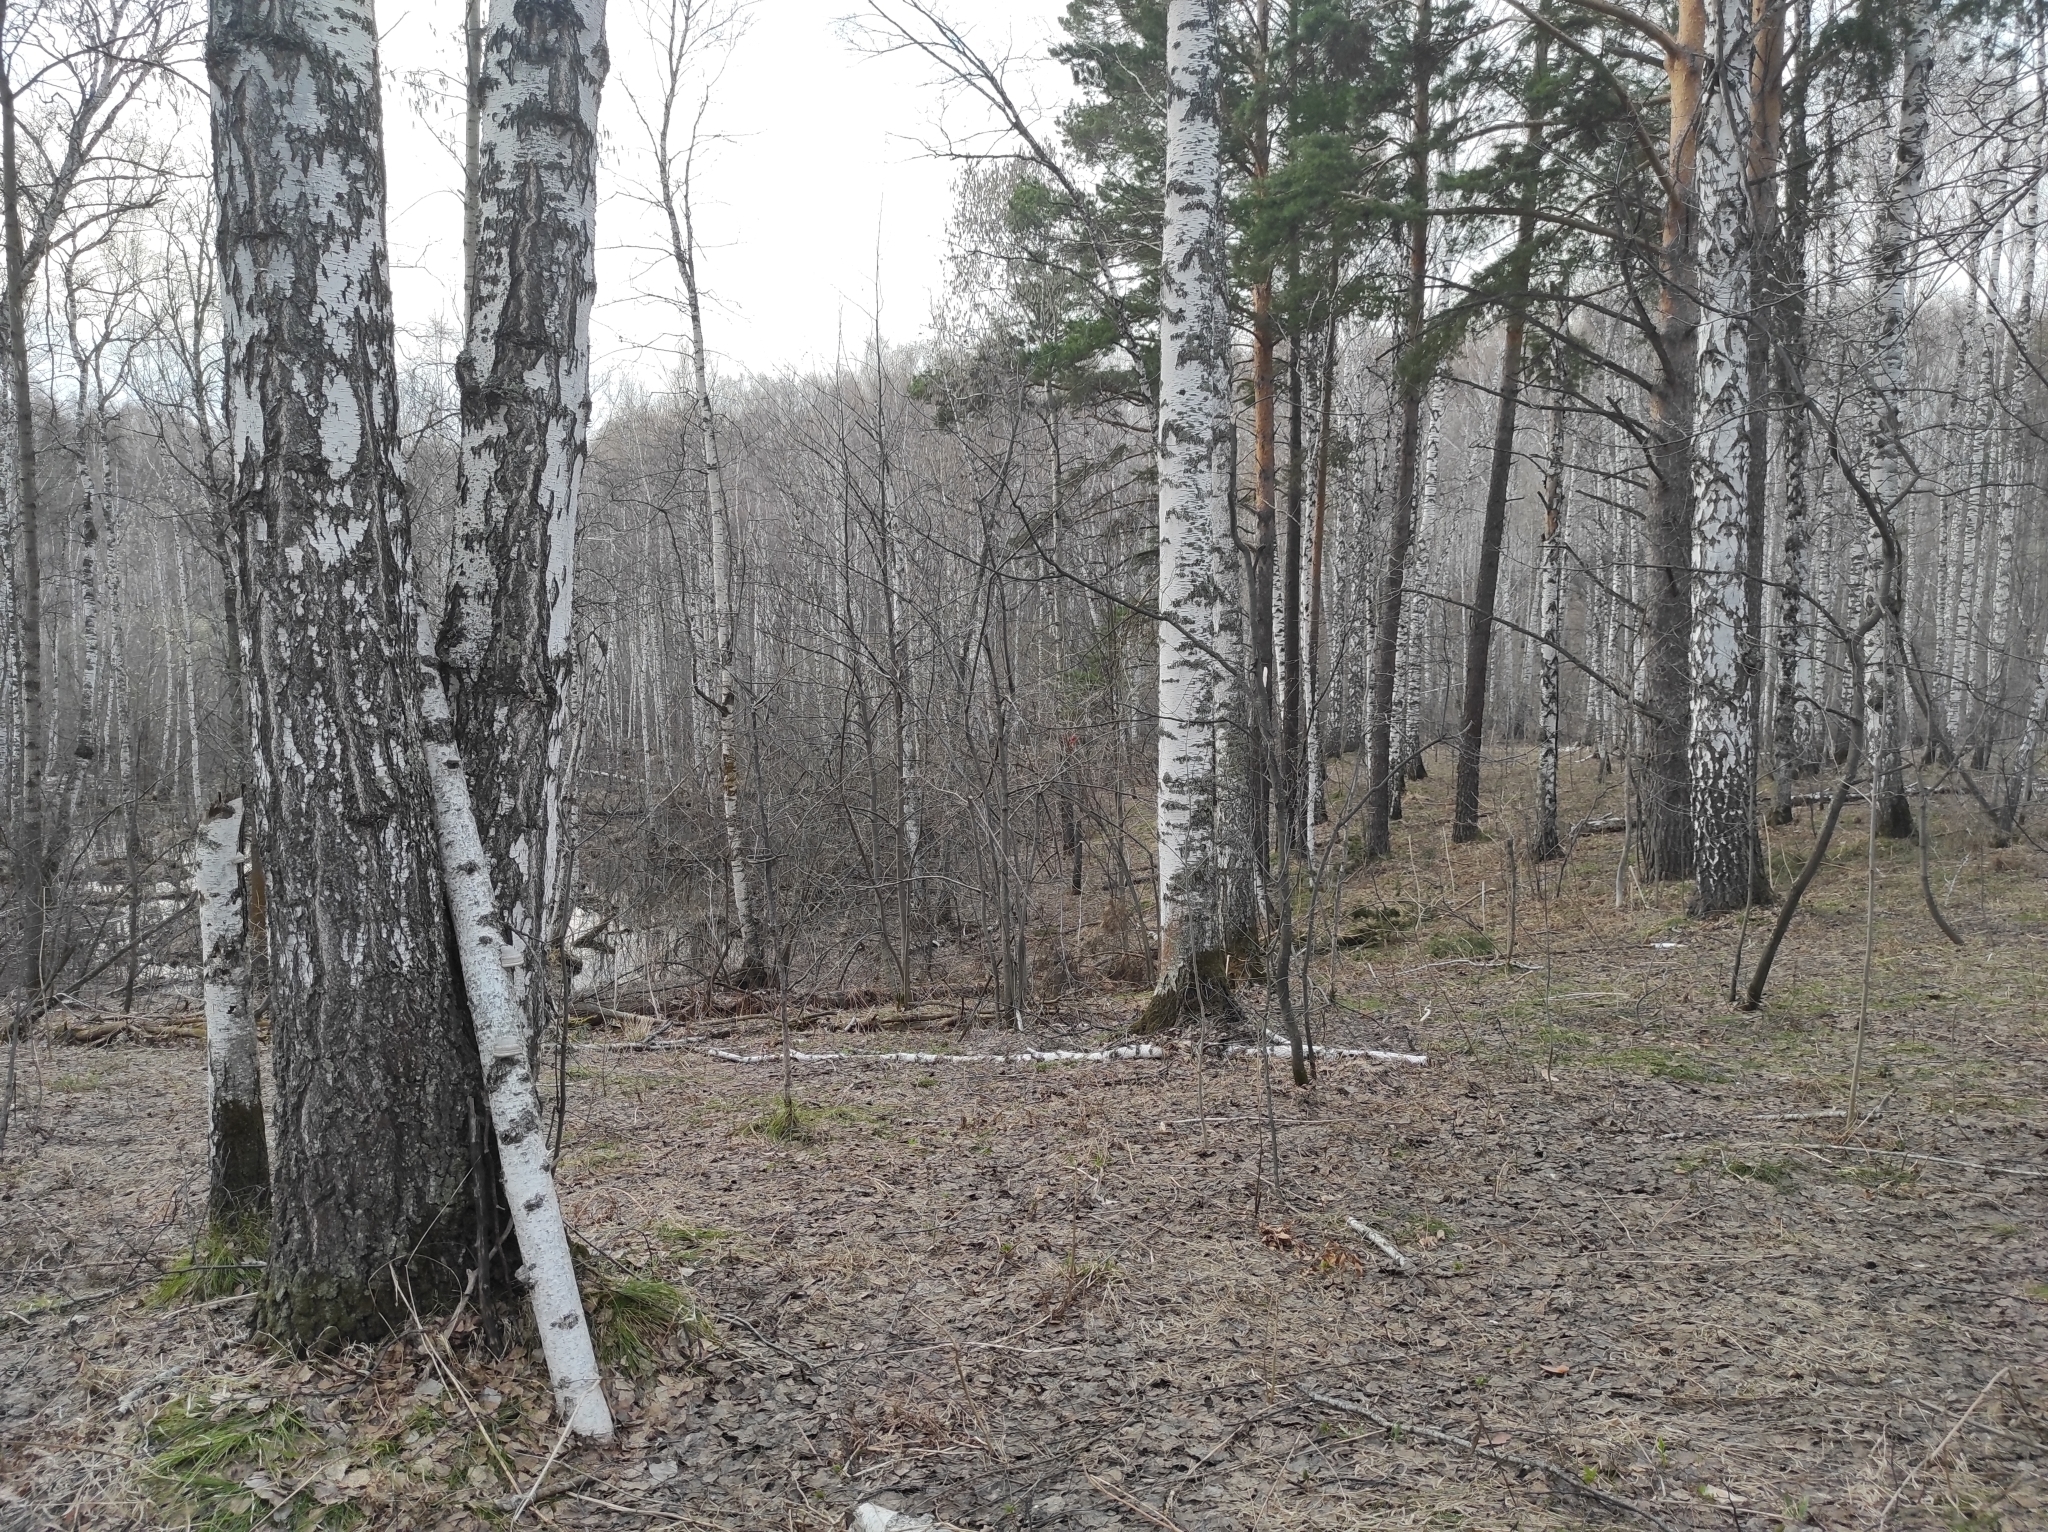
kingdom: Plantae
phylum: Tracheophyta
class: Magnoliopsida
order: Fagales
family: Betulaceae
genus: Betula
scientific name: Betula pendula
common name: Silver birch
